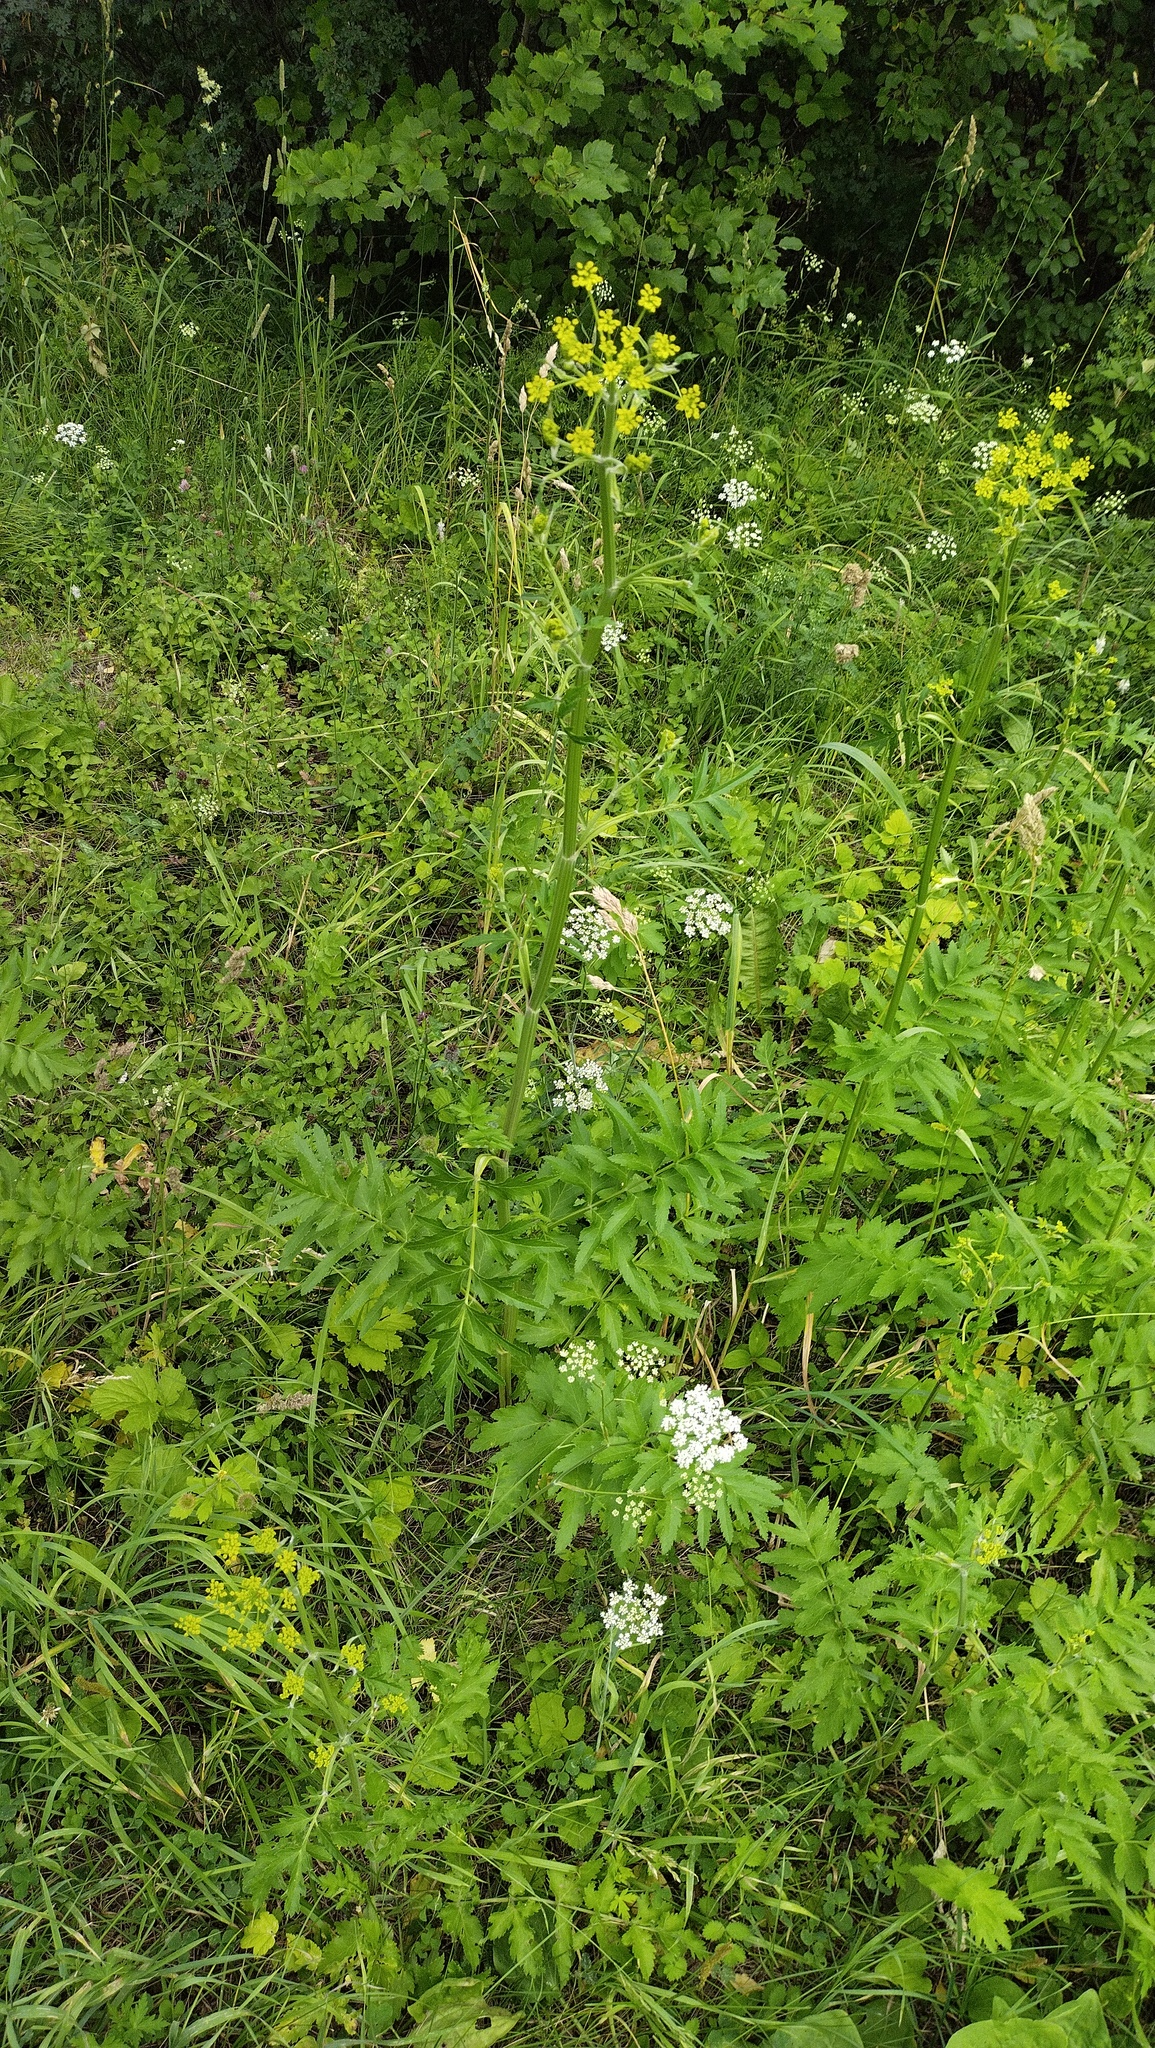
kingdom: Plantae
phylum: Tracheophyta
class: Magnoliopsida
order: Apiales
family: Apiaceae
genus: Pastinaca
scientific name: Pastinaca sativa
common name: Wild parsnip
